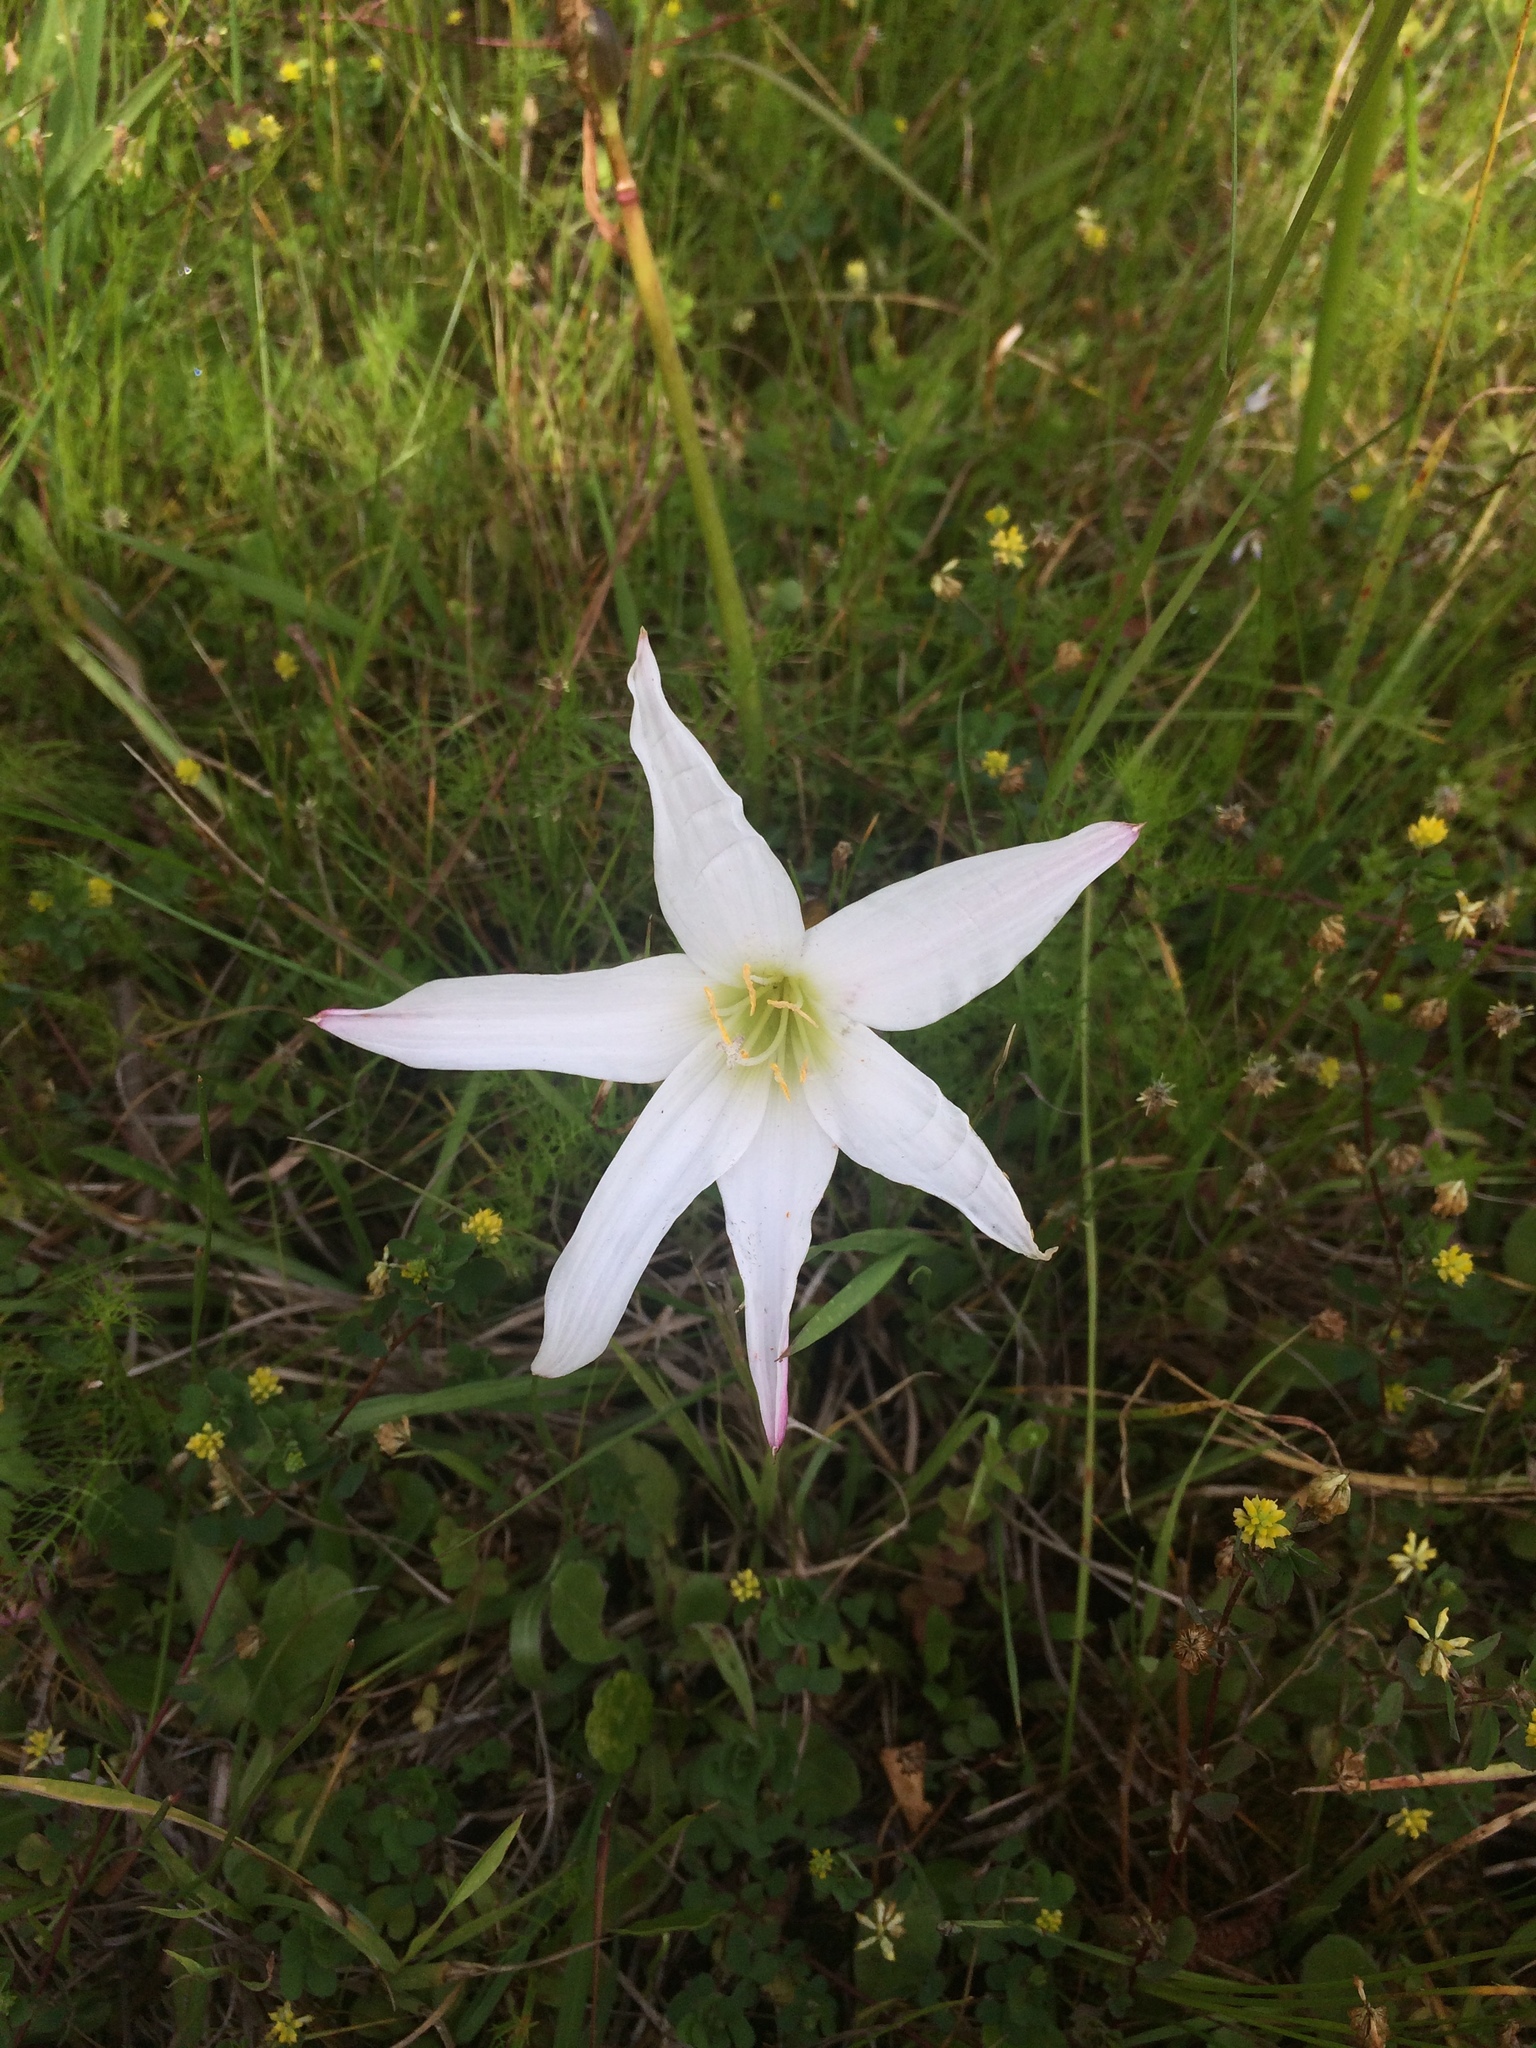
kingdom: Plantae
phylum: Tracheophyta
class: Liliopsida
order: Asparagales
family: Amaryllidaceae
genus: Zephyranthes
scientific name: Zephyranthes atamasco
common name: Atamasco lily
